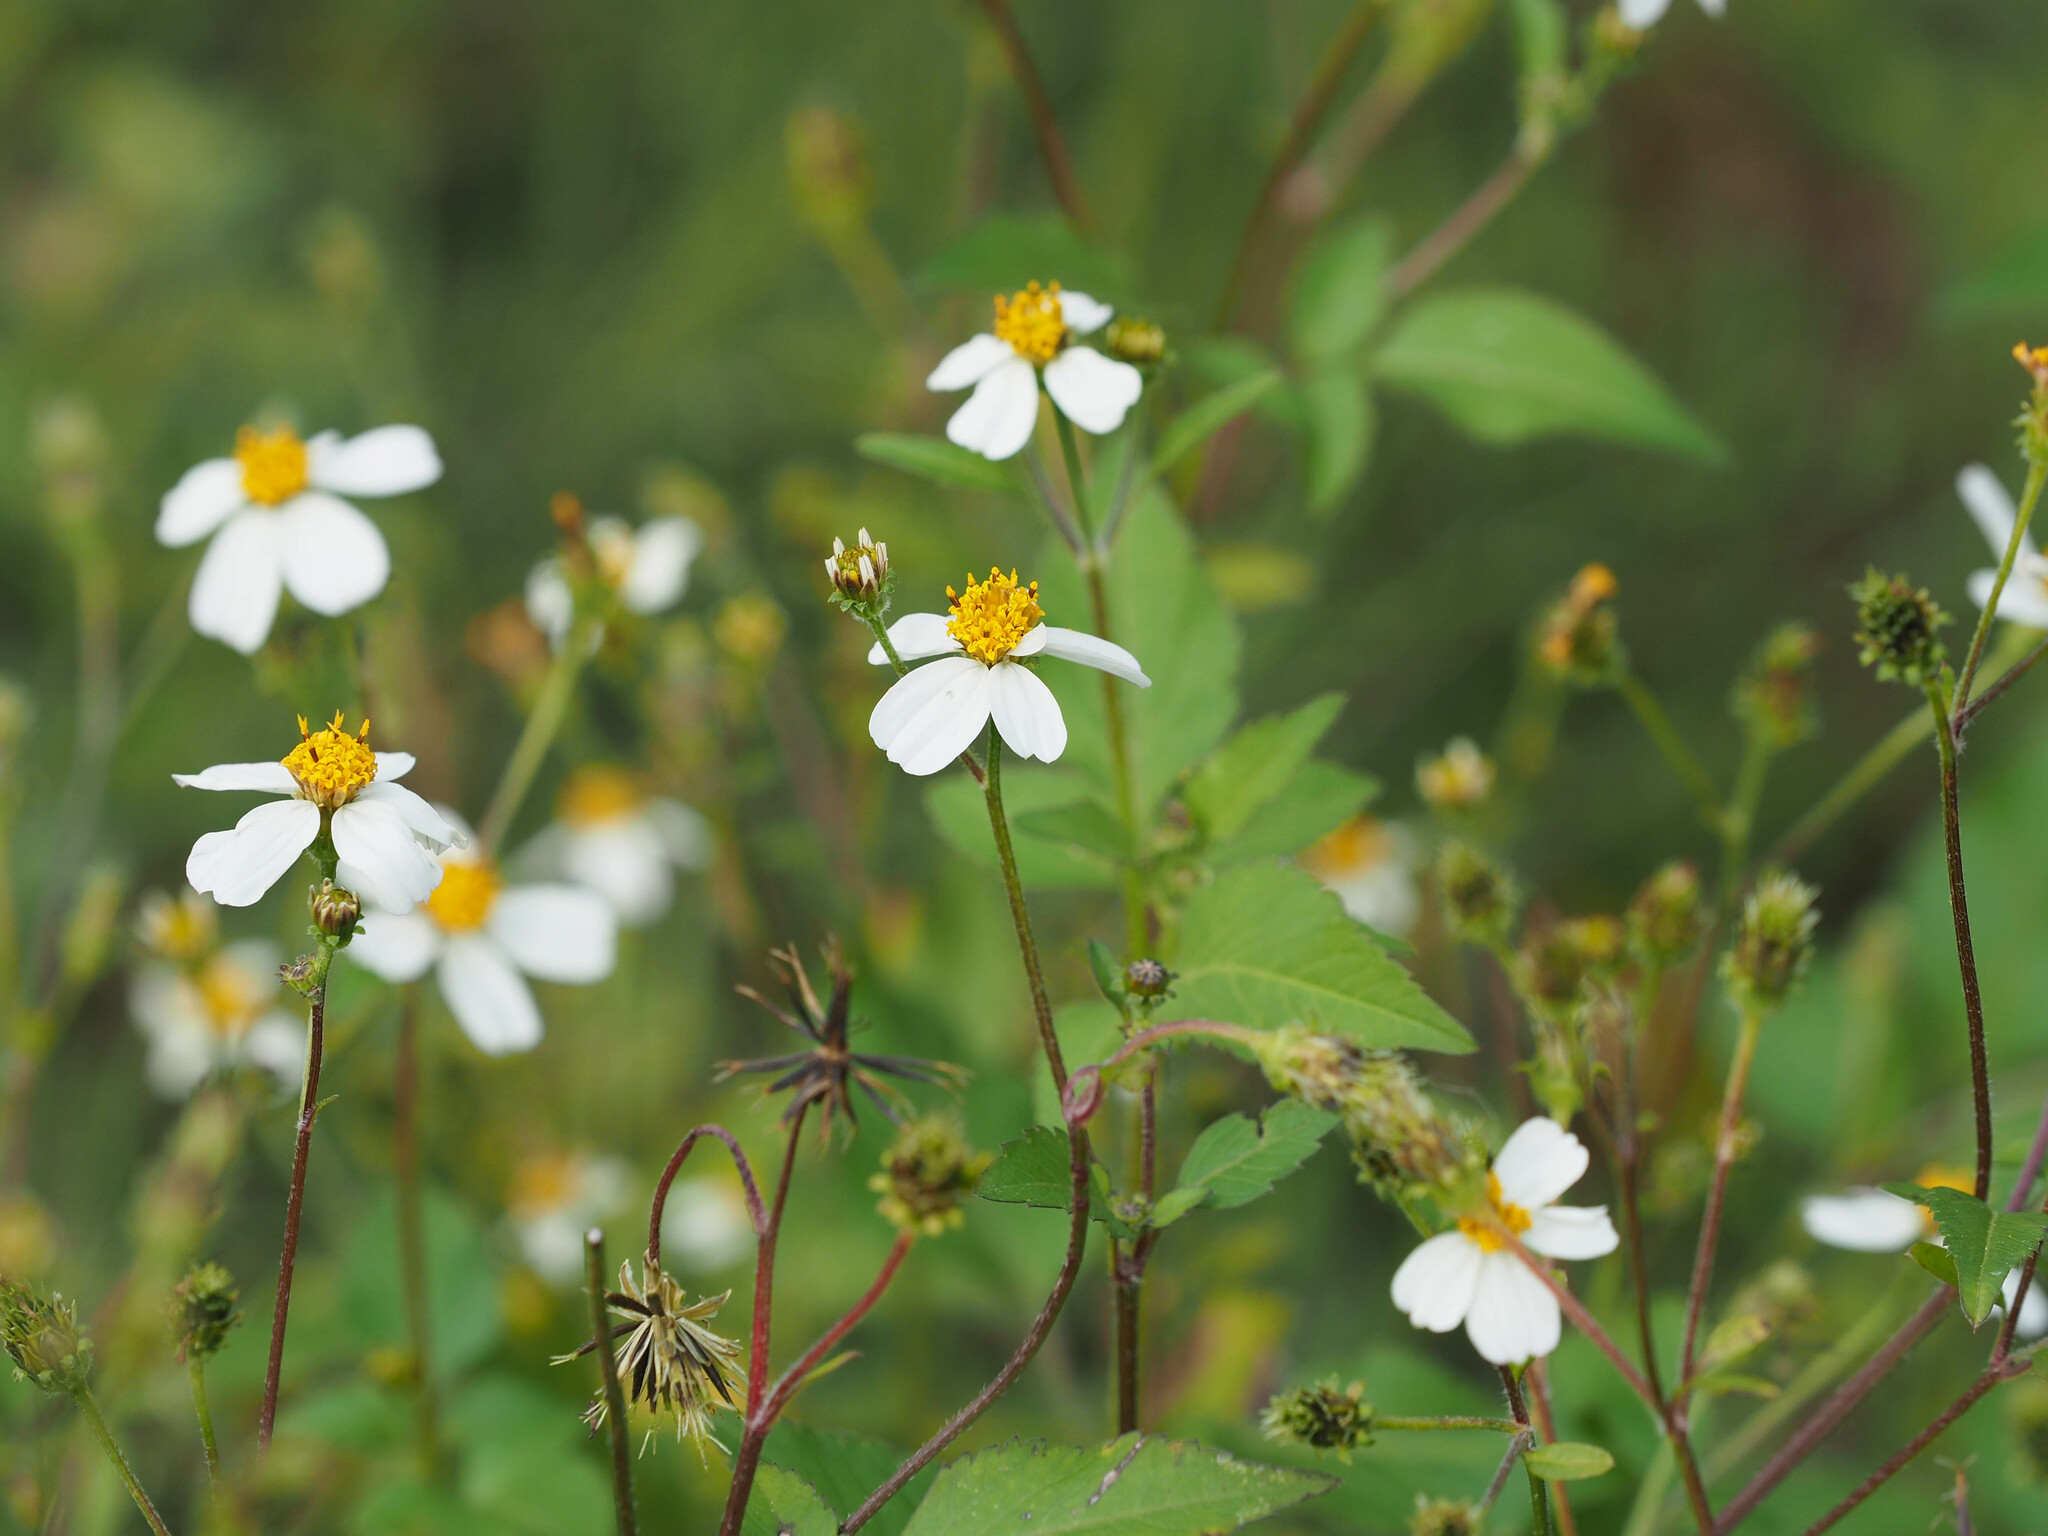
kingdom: Plantae
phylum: Tracheophyta
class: Magnoliopsida
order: Asterales
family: Asteraceae
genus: Bidens
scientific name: Bidens alba
